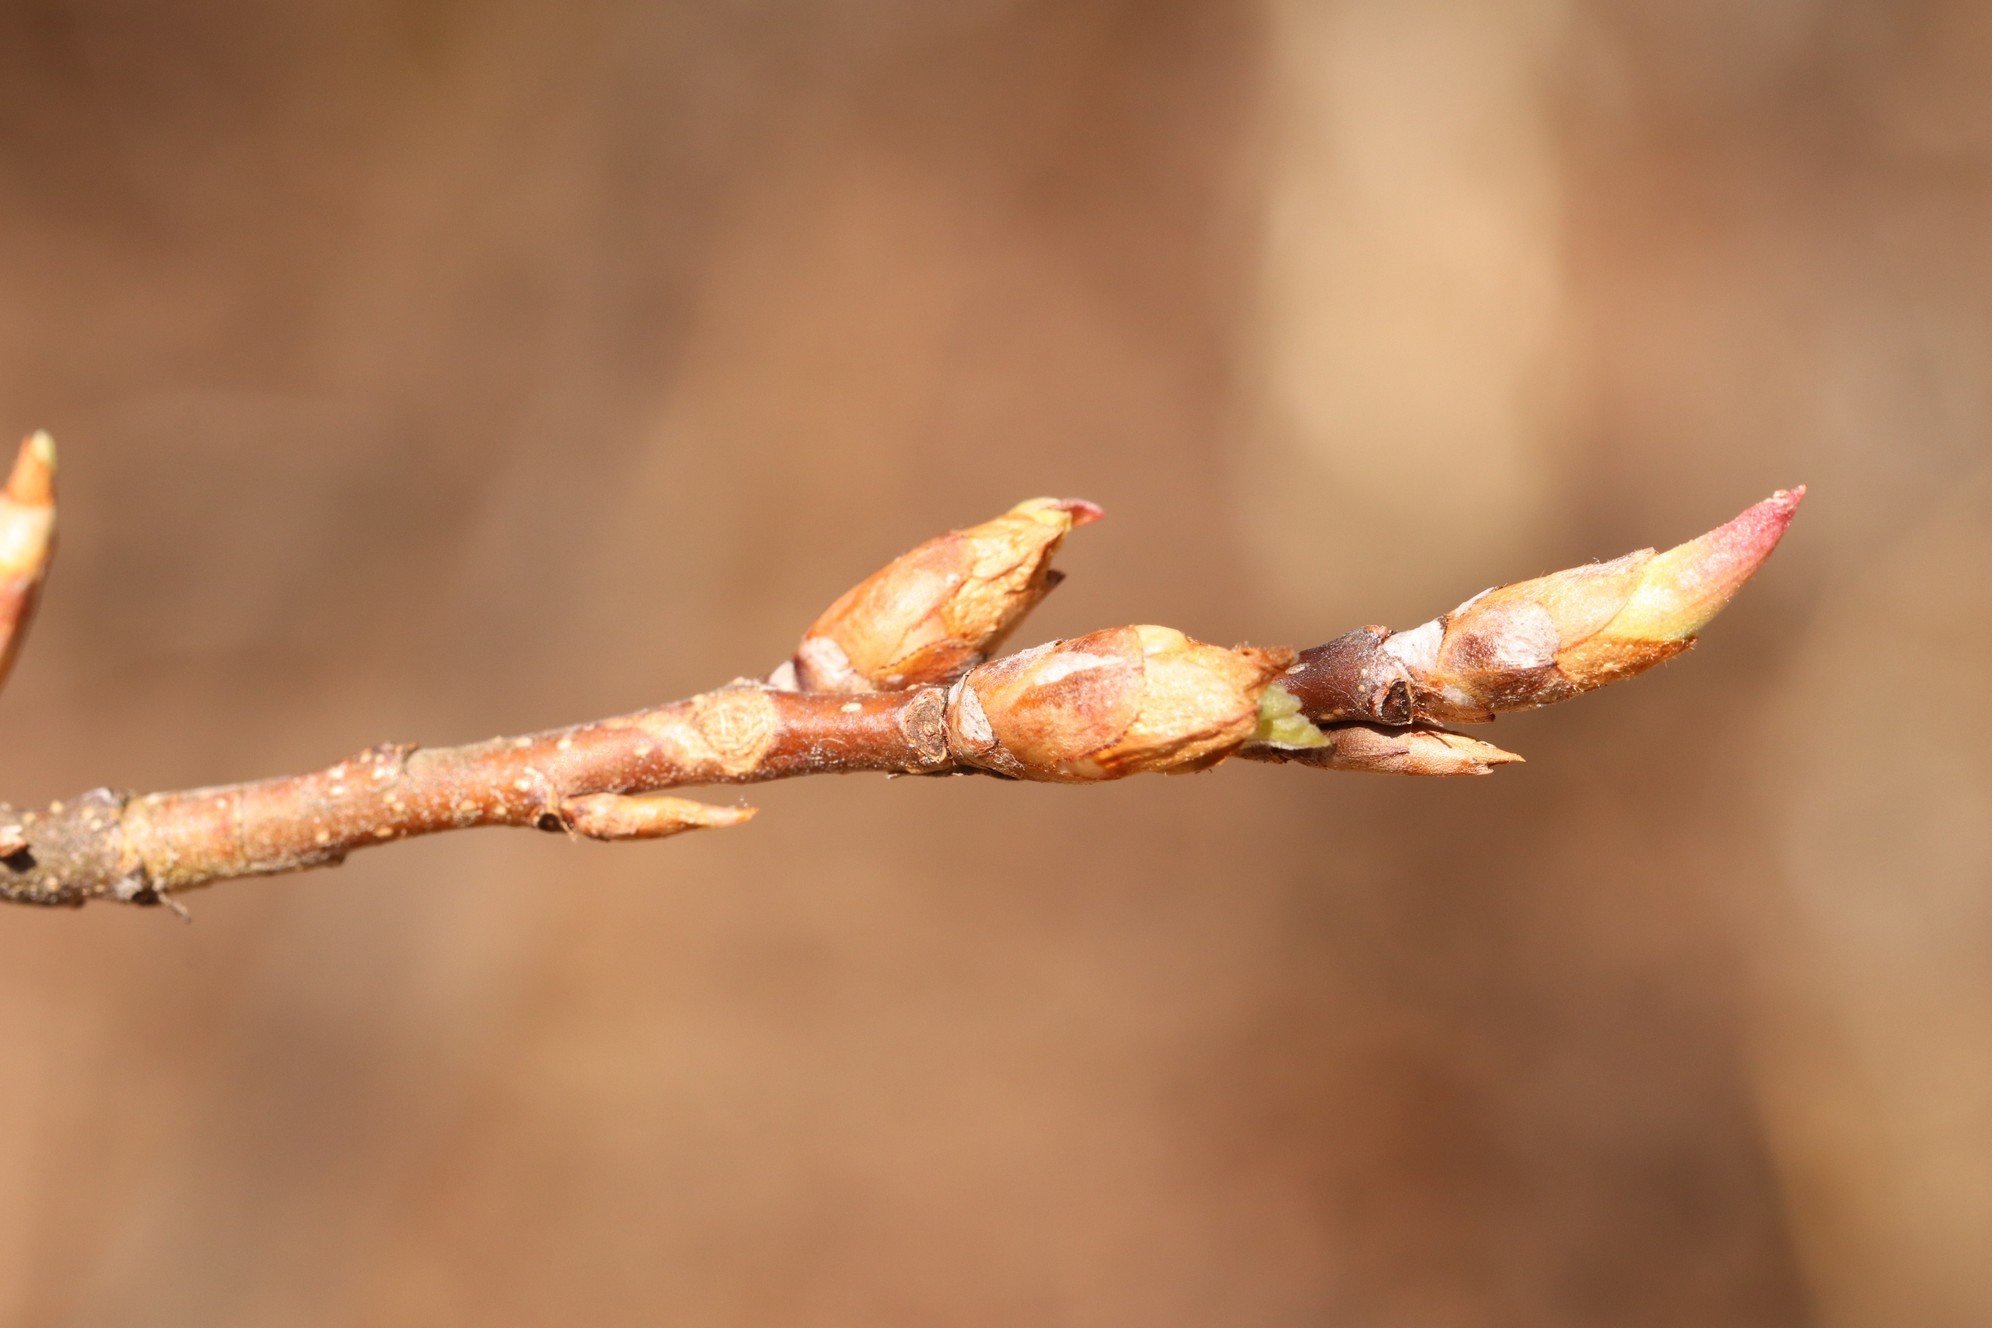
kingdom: Plantae
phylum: Tracheophyta
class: Magnoliopsida
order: Rosales
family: Rosaceae
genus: Prunus
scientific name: Prunus padus
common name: Bird cherry
